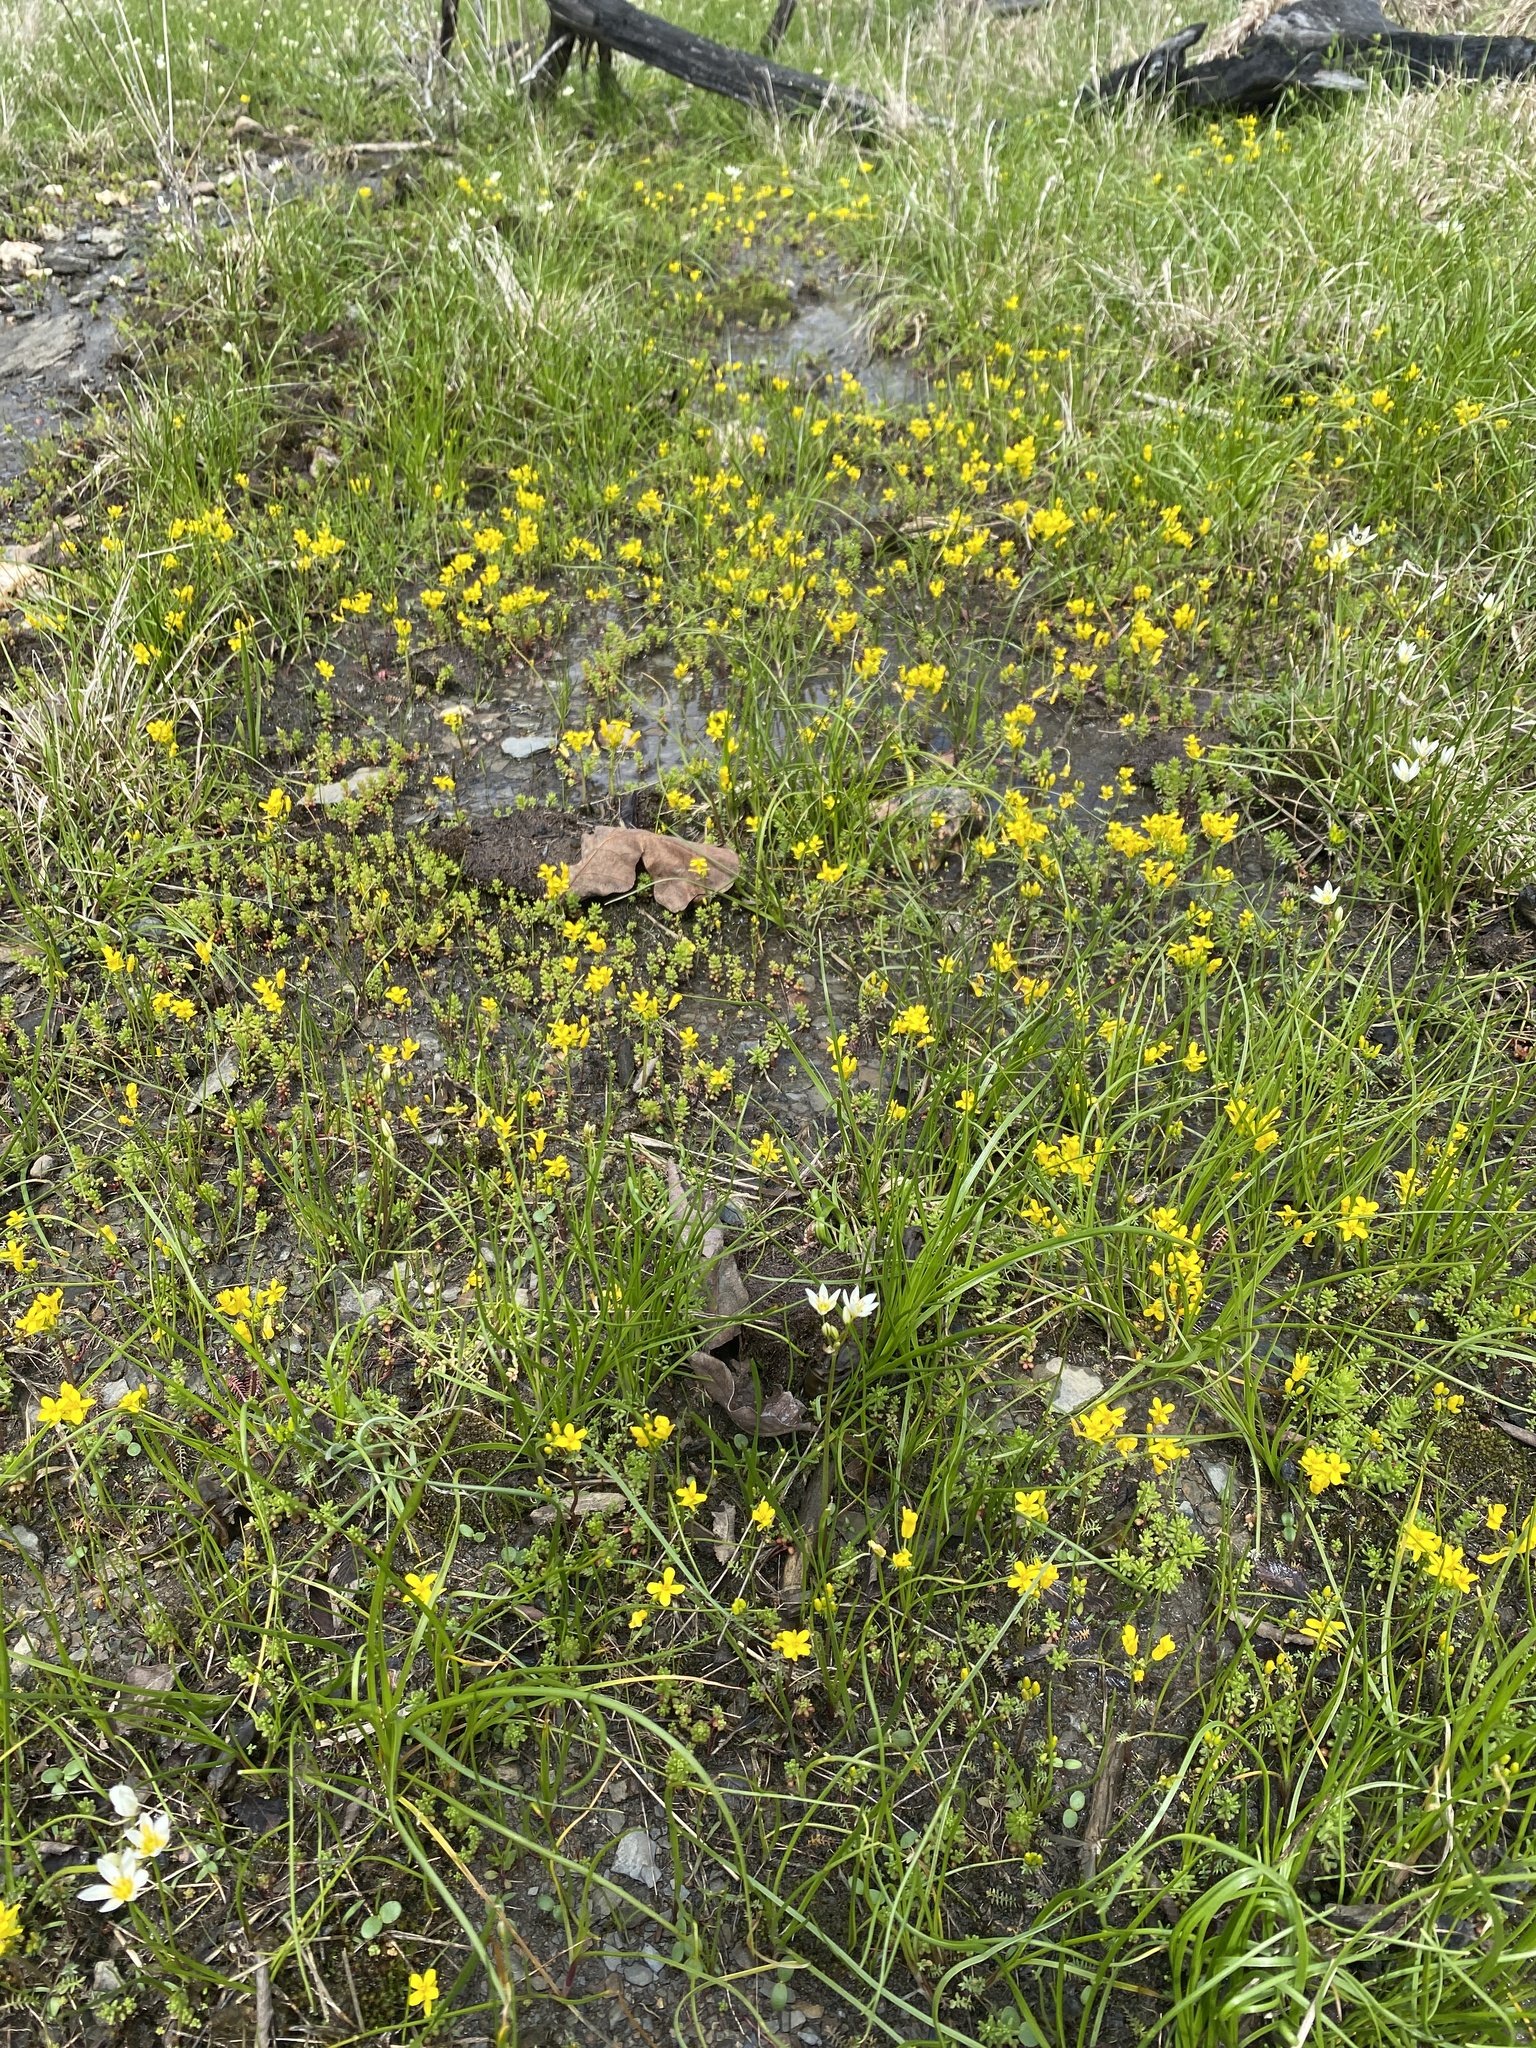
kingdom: Plantae
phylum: Tracheophyta
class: Magnoliopsida
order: Brassicales
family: Brassicaceae
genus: Selenia
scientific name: Selenia aurea
